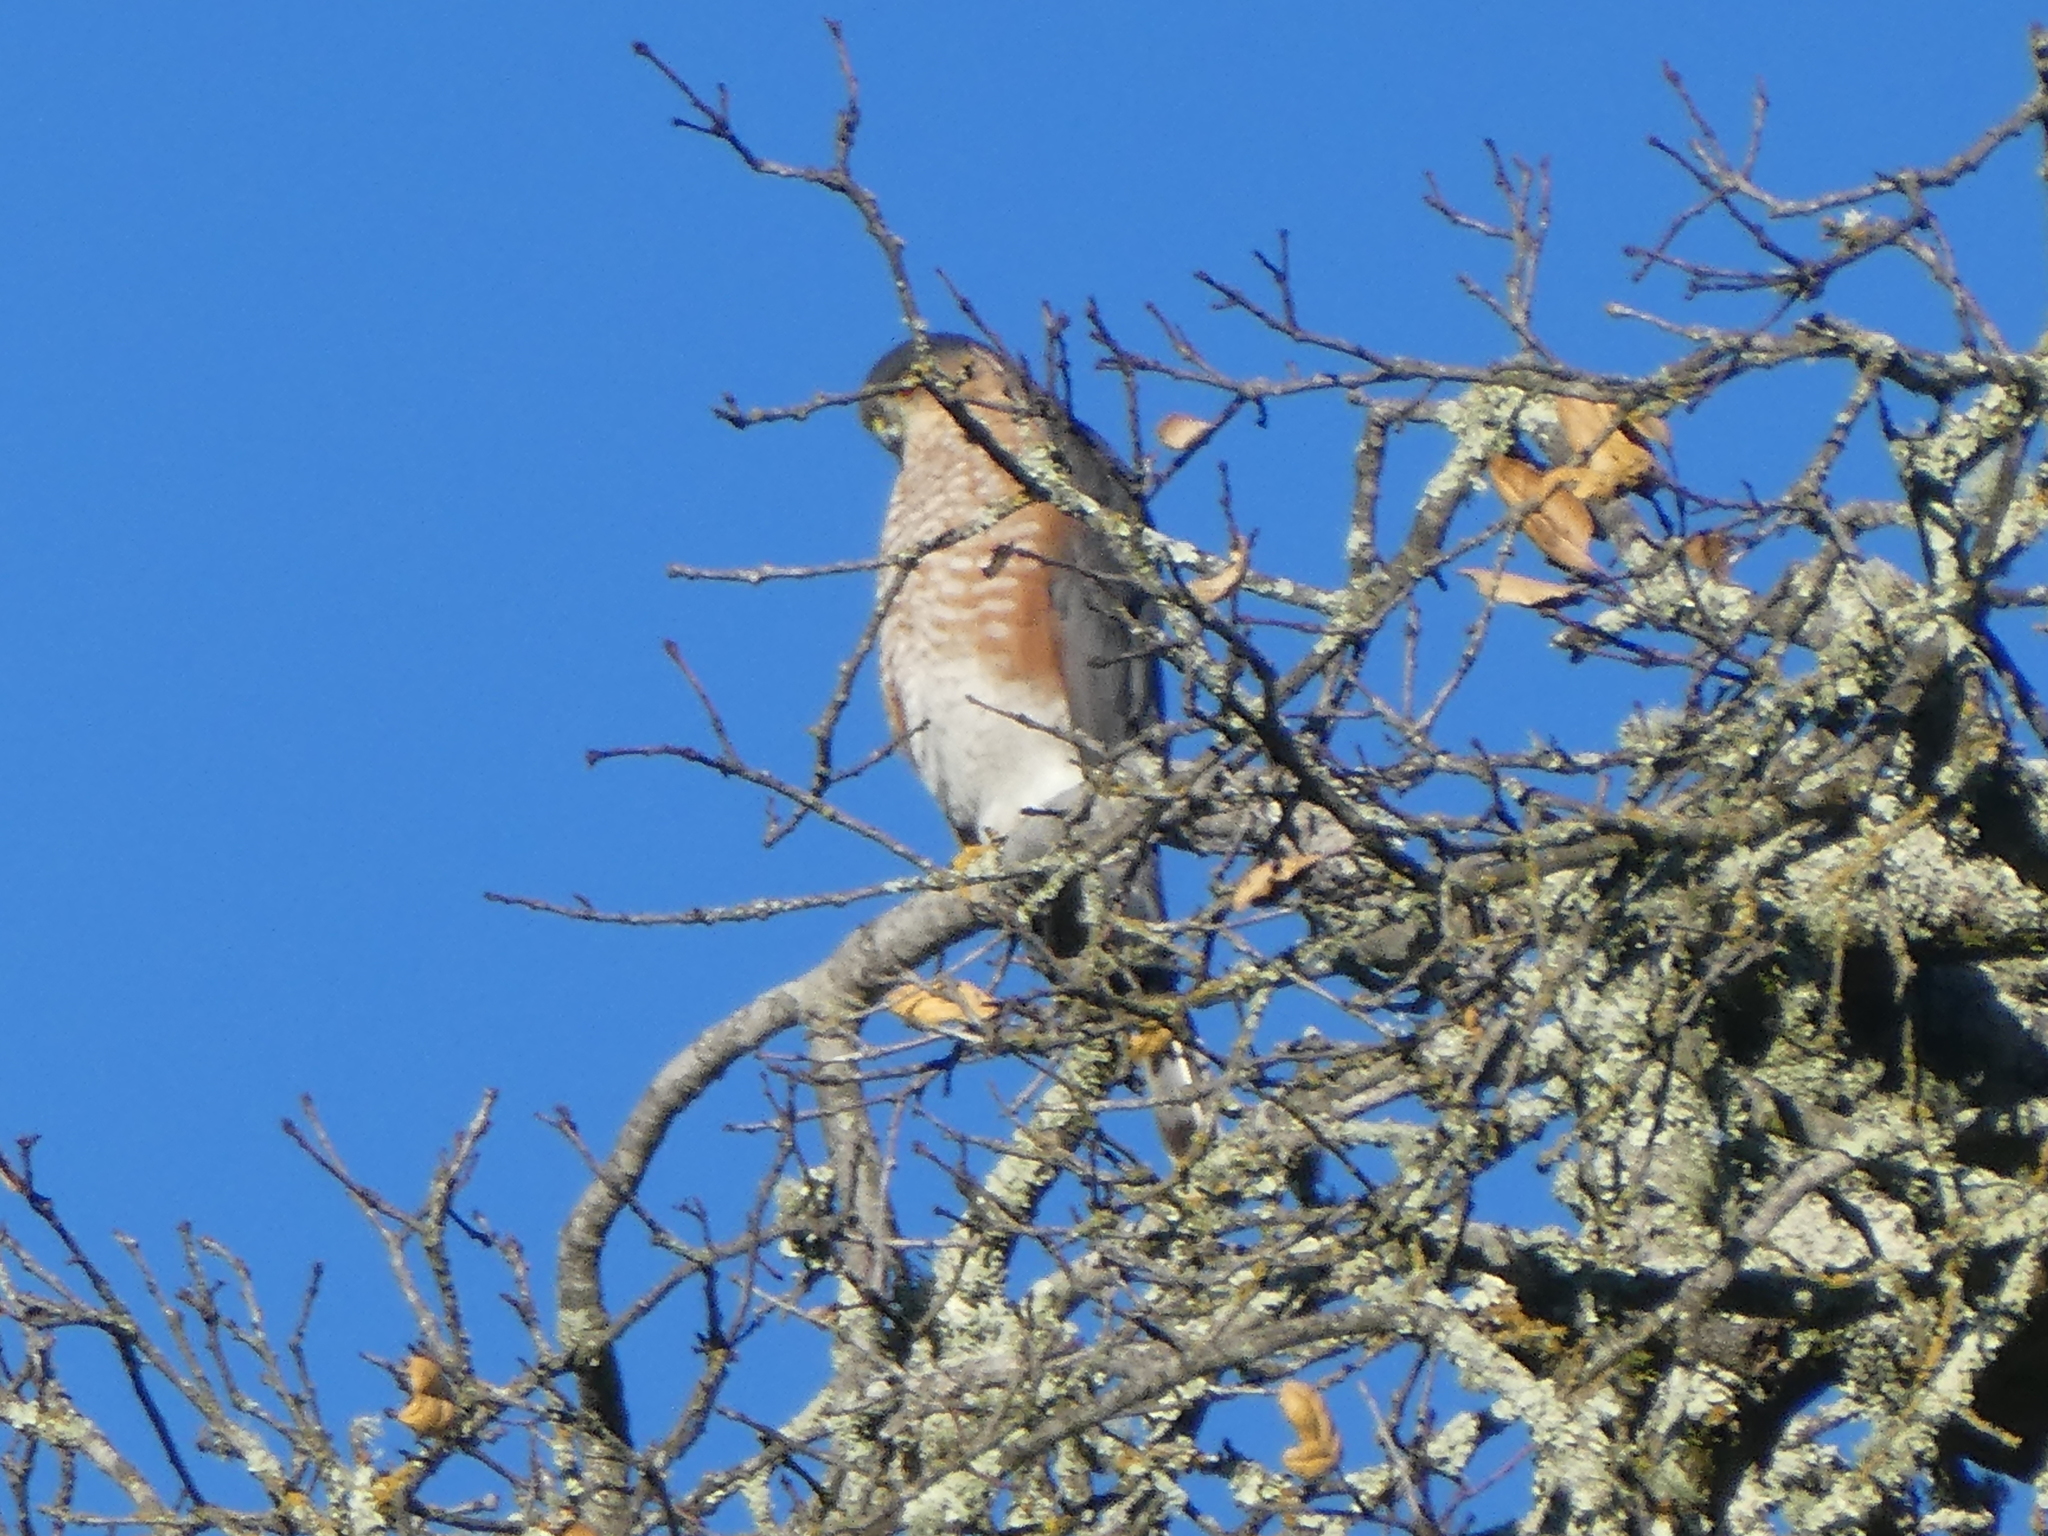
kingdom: Animalia
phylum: Chordata
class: Aves
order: Accipitriformes
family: Accipitridae
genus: Accipiter
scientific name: Accipiter striatus
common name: Sharp-shinned hawk
